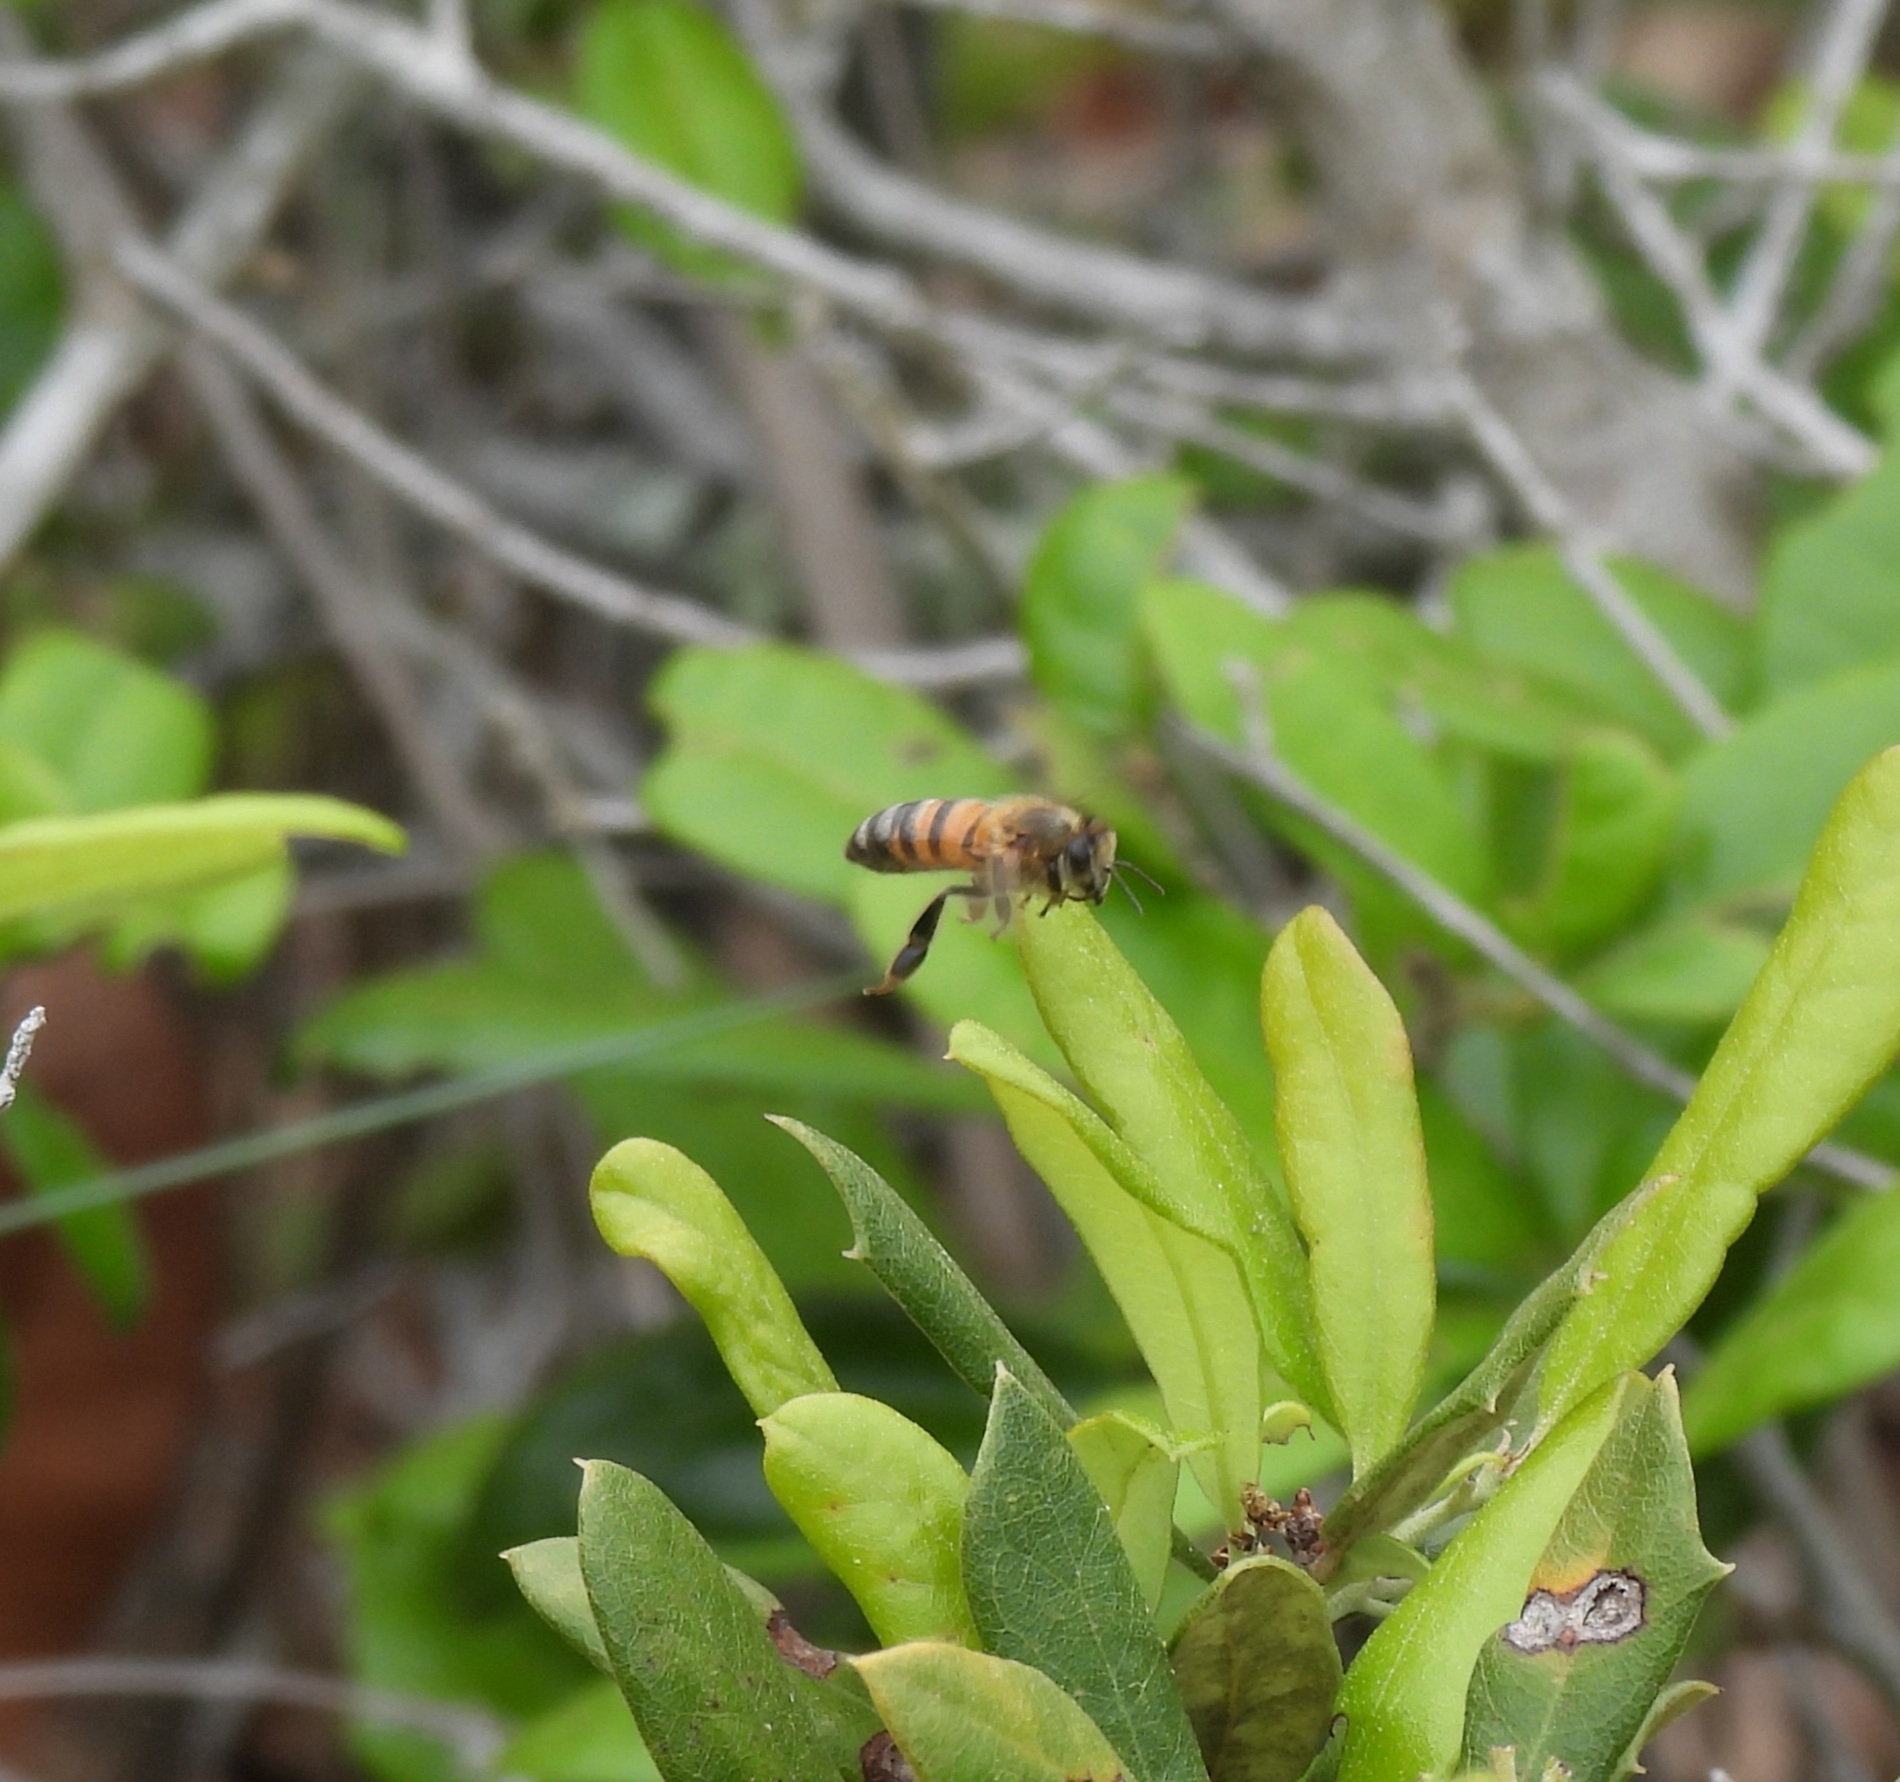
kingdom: Animalia
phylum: Arthropoda
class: Insecta
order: Hymenoptera
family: Apidae
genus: Apis
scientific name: Apis mellifera
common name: Honey bee
